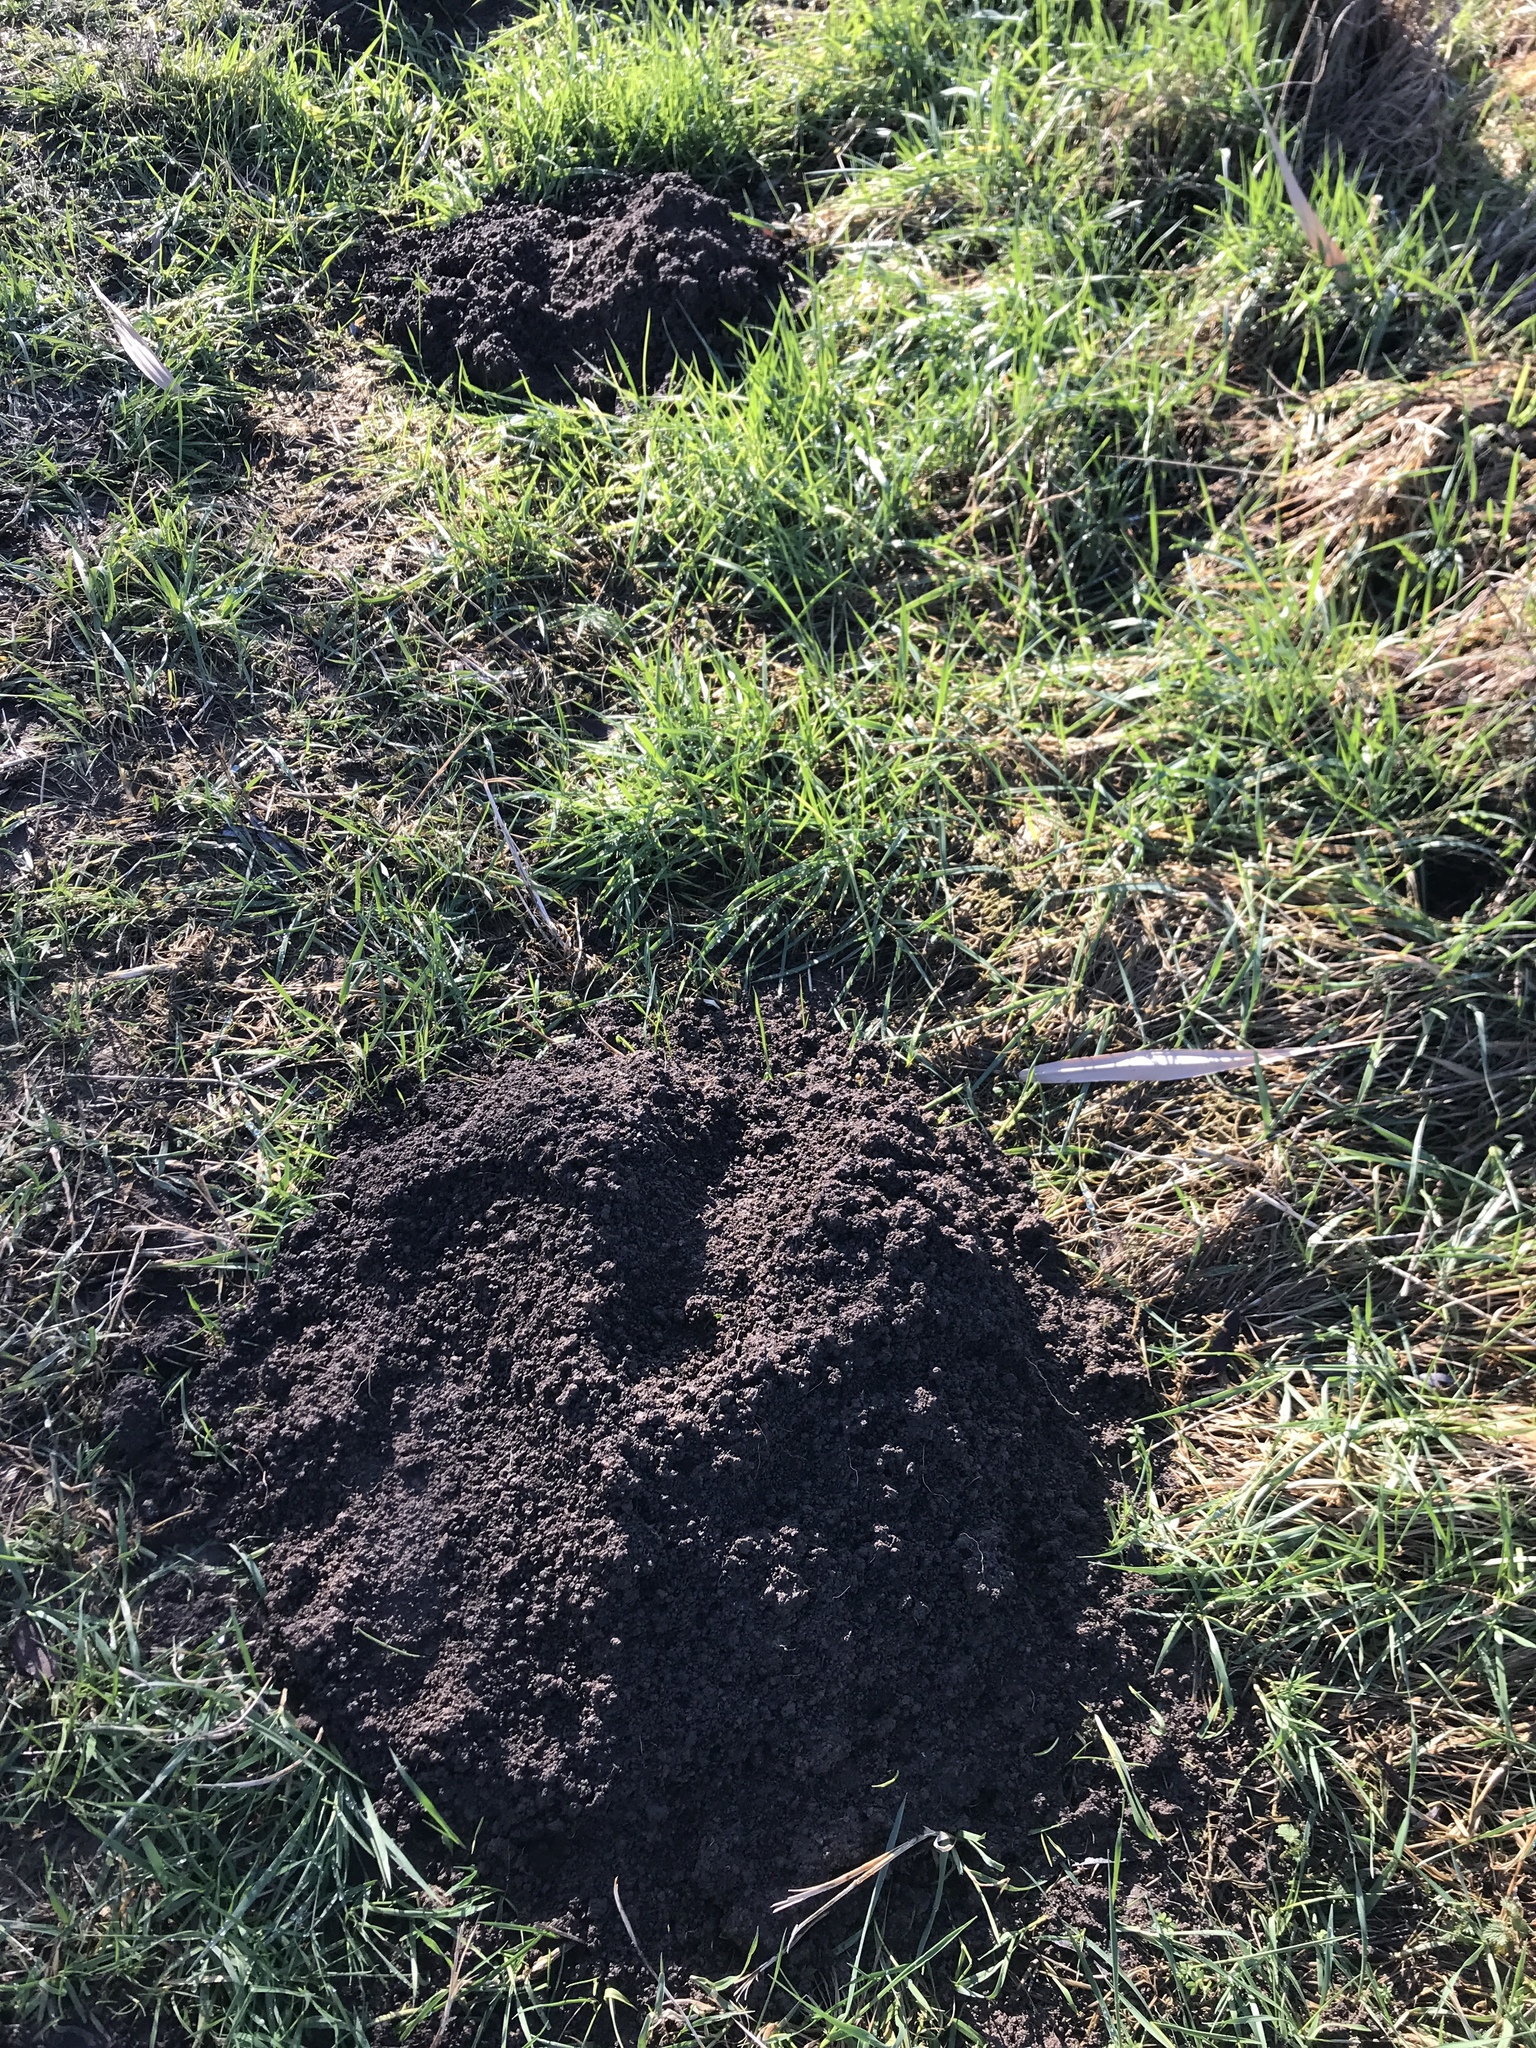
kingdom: Animalia
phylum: Chordata
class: Mammalia
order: Soricomorpha
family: Talpidae
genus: Talpa
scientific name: Talpa europaea
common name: European mole
